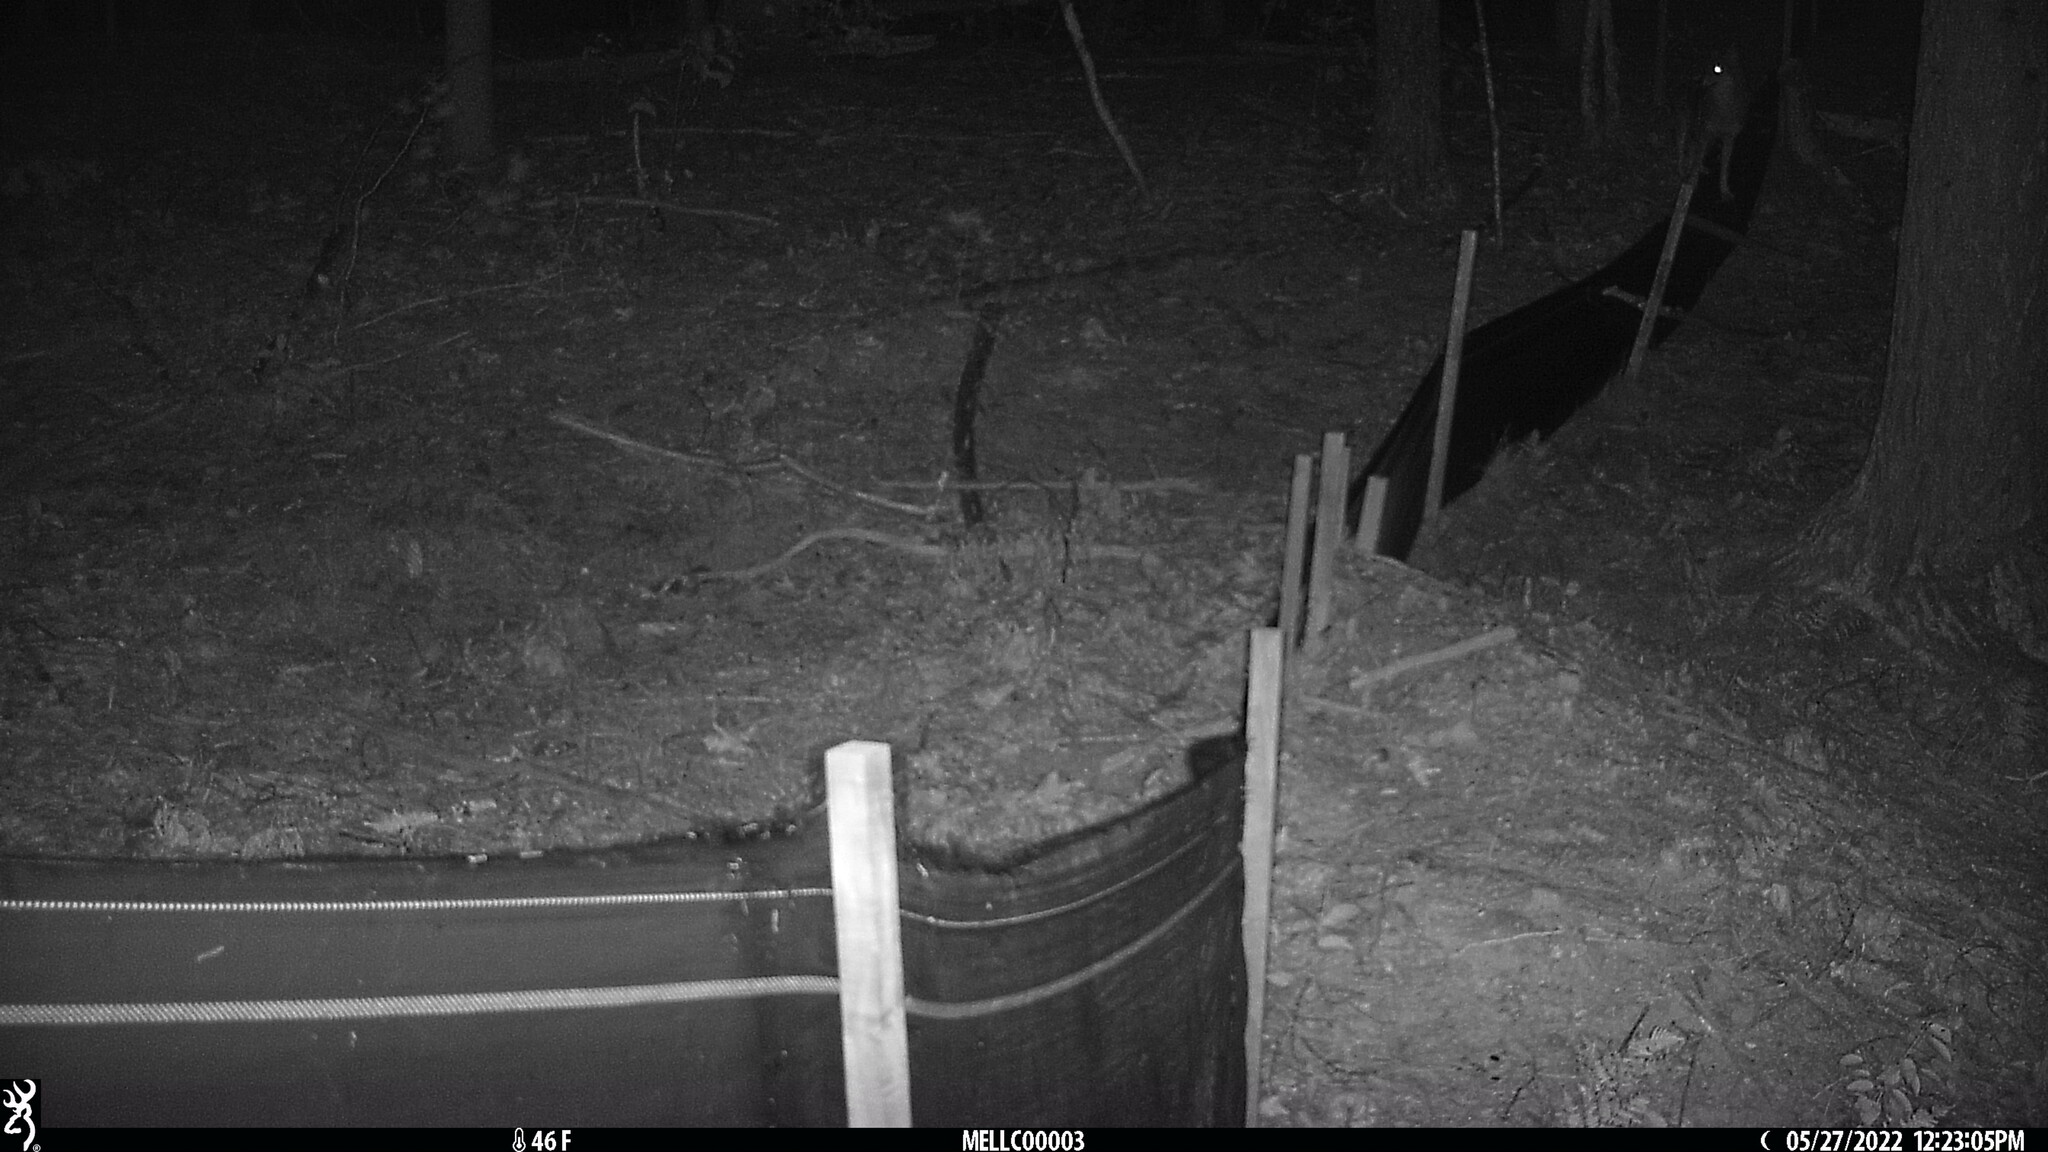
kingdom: Animalia
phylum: Chordata
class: Mammalia
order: Carnivora
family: Canidae
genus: Canis
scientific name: Canis latrans
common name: Coyote
